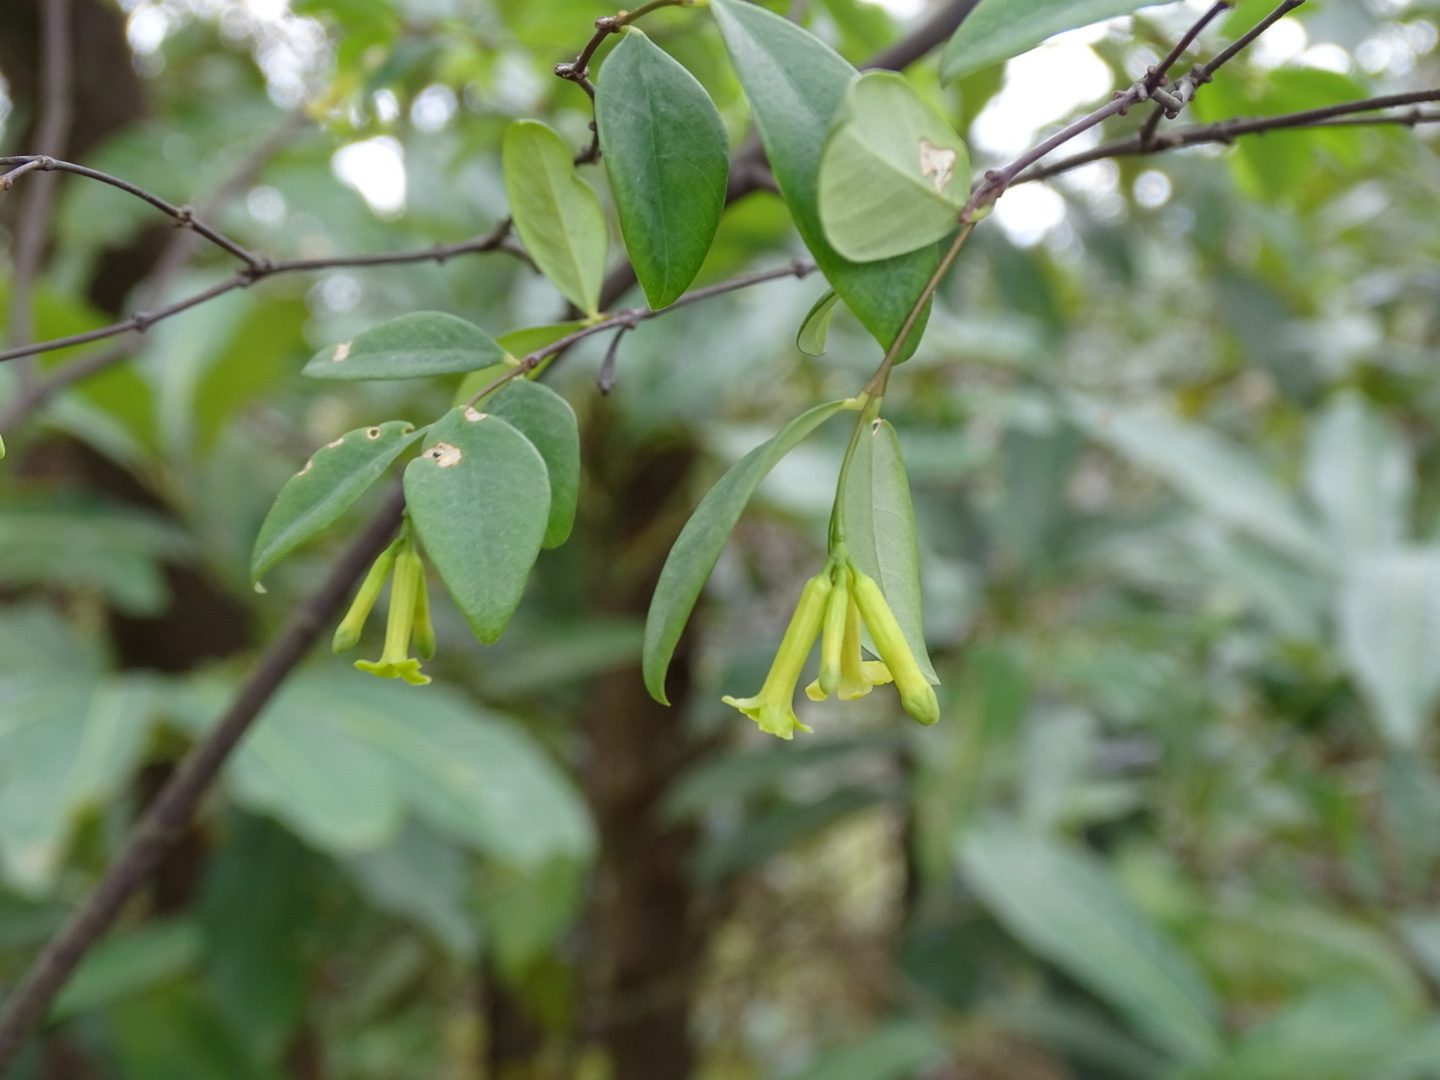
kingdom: Plantae
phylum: Tracheophyta
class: Magnoliopsida
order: Malvales
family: Thymelaeaceae
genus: Wikstroemia
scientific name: Wikstroemia nutans
